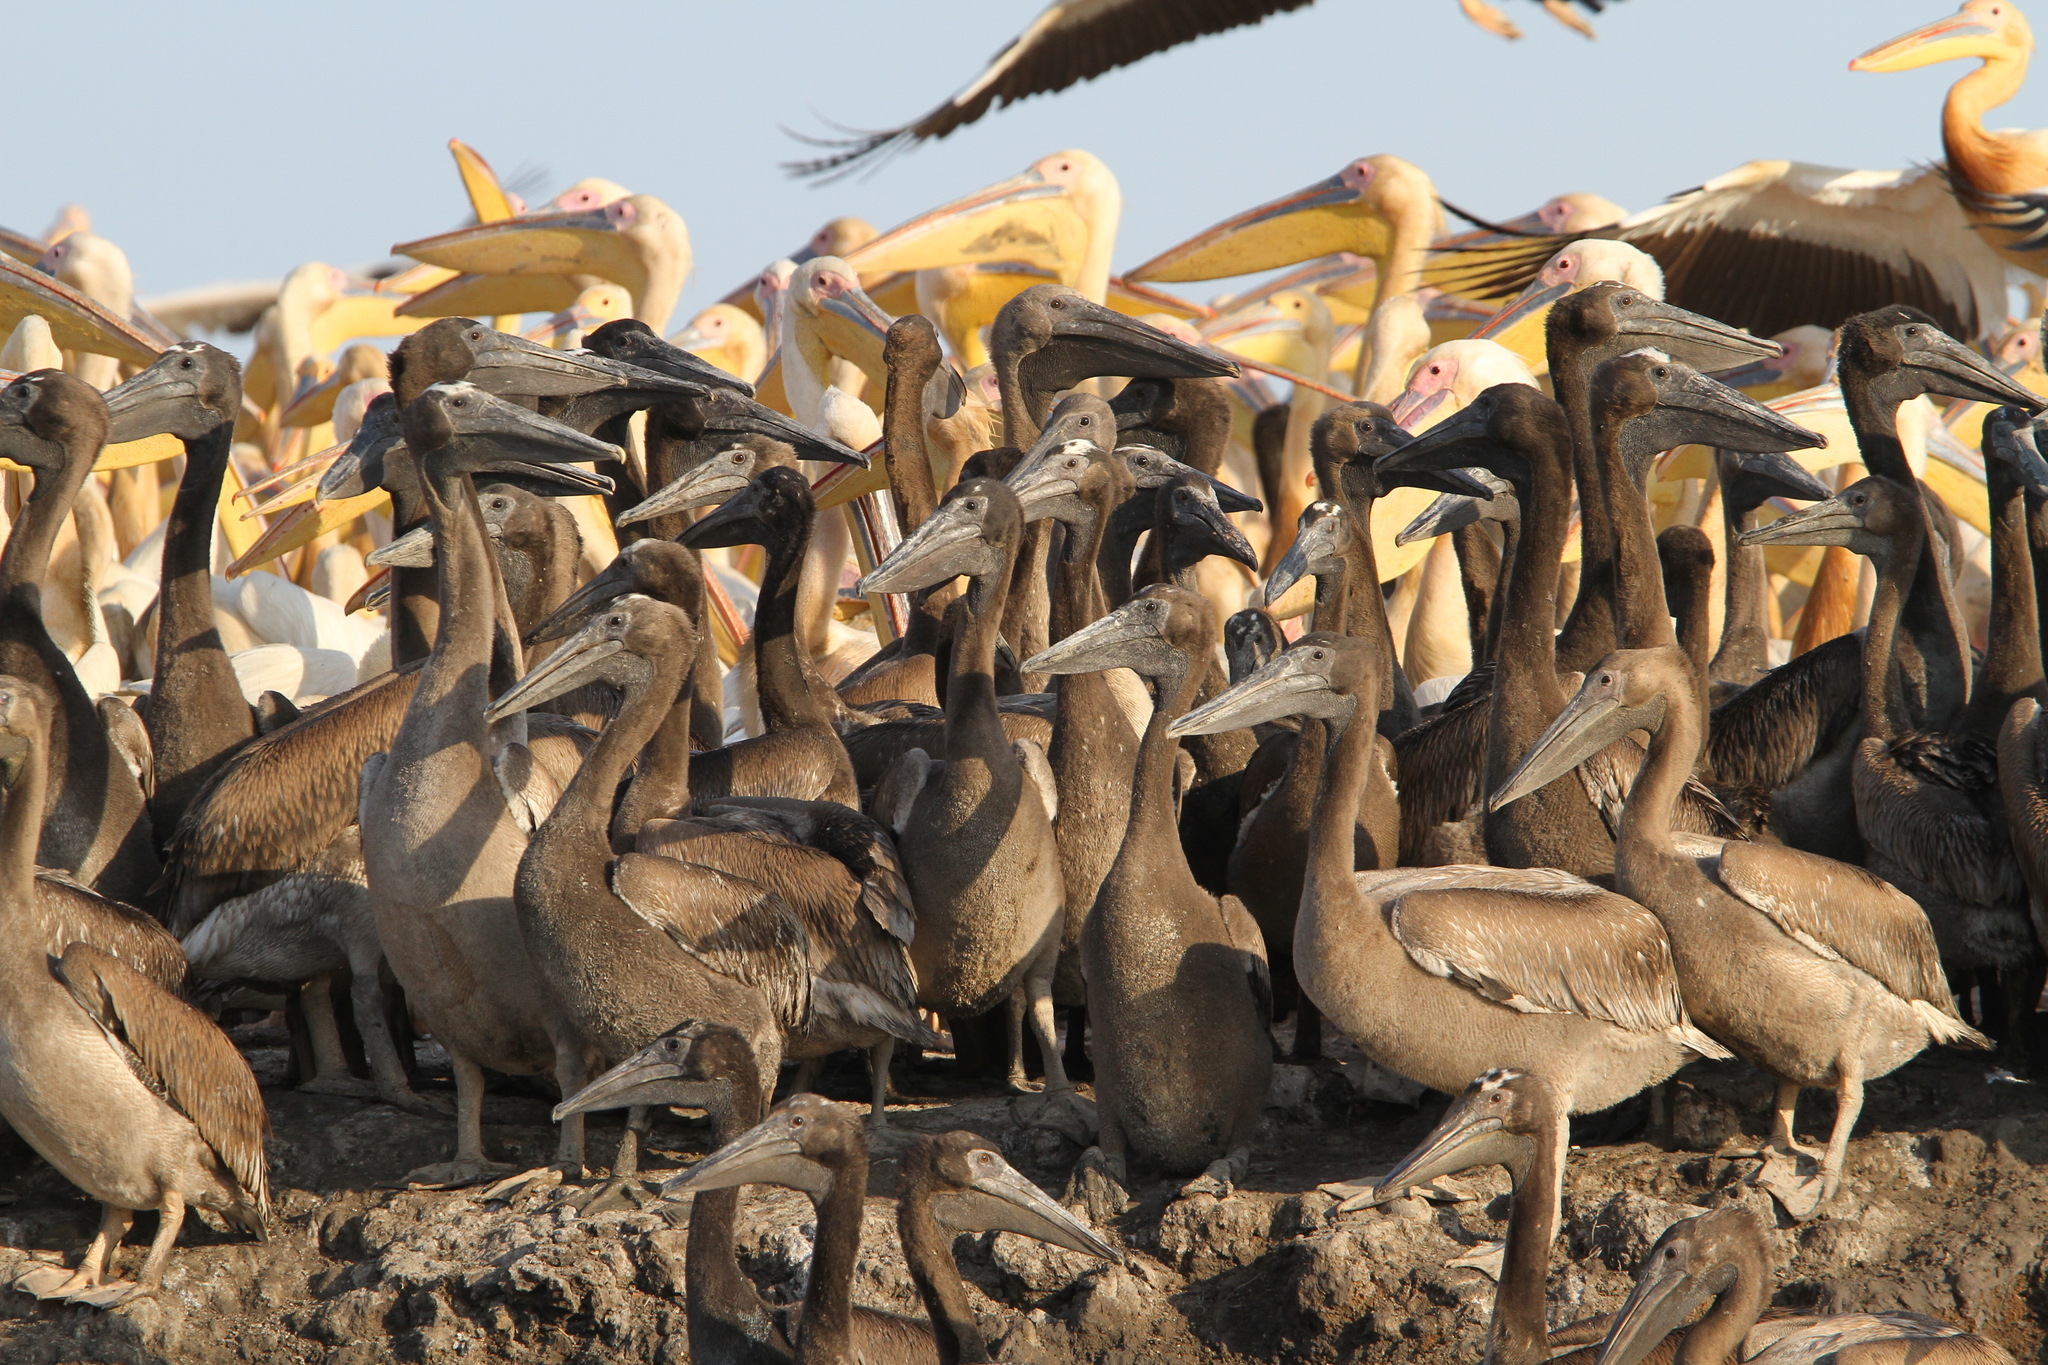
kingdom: Animalia
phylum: Chordata
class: Aves
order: Pelecaniformes
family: Pelecanidae
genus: Pelecanus
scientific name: Pelecanus onocrotalus
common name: Great white pelican
